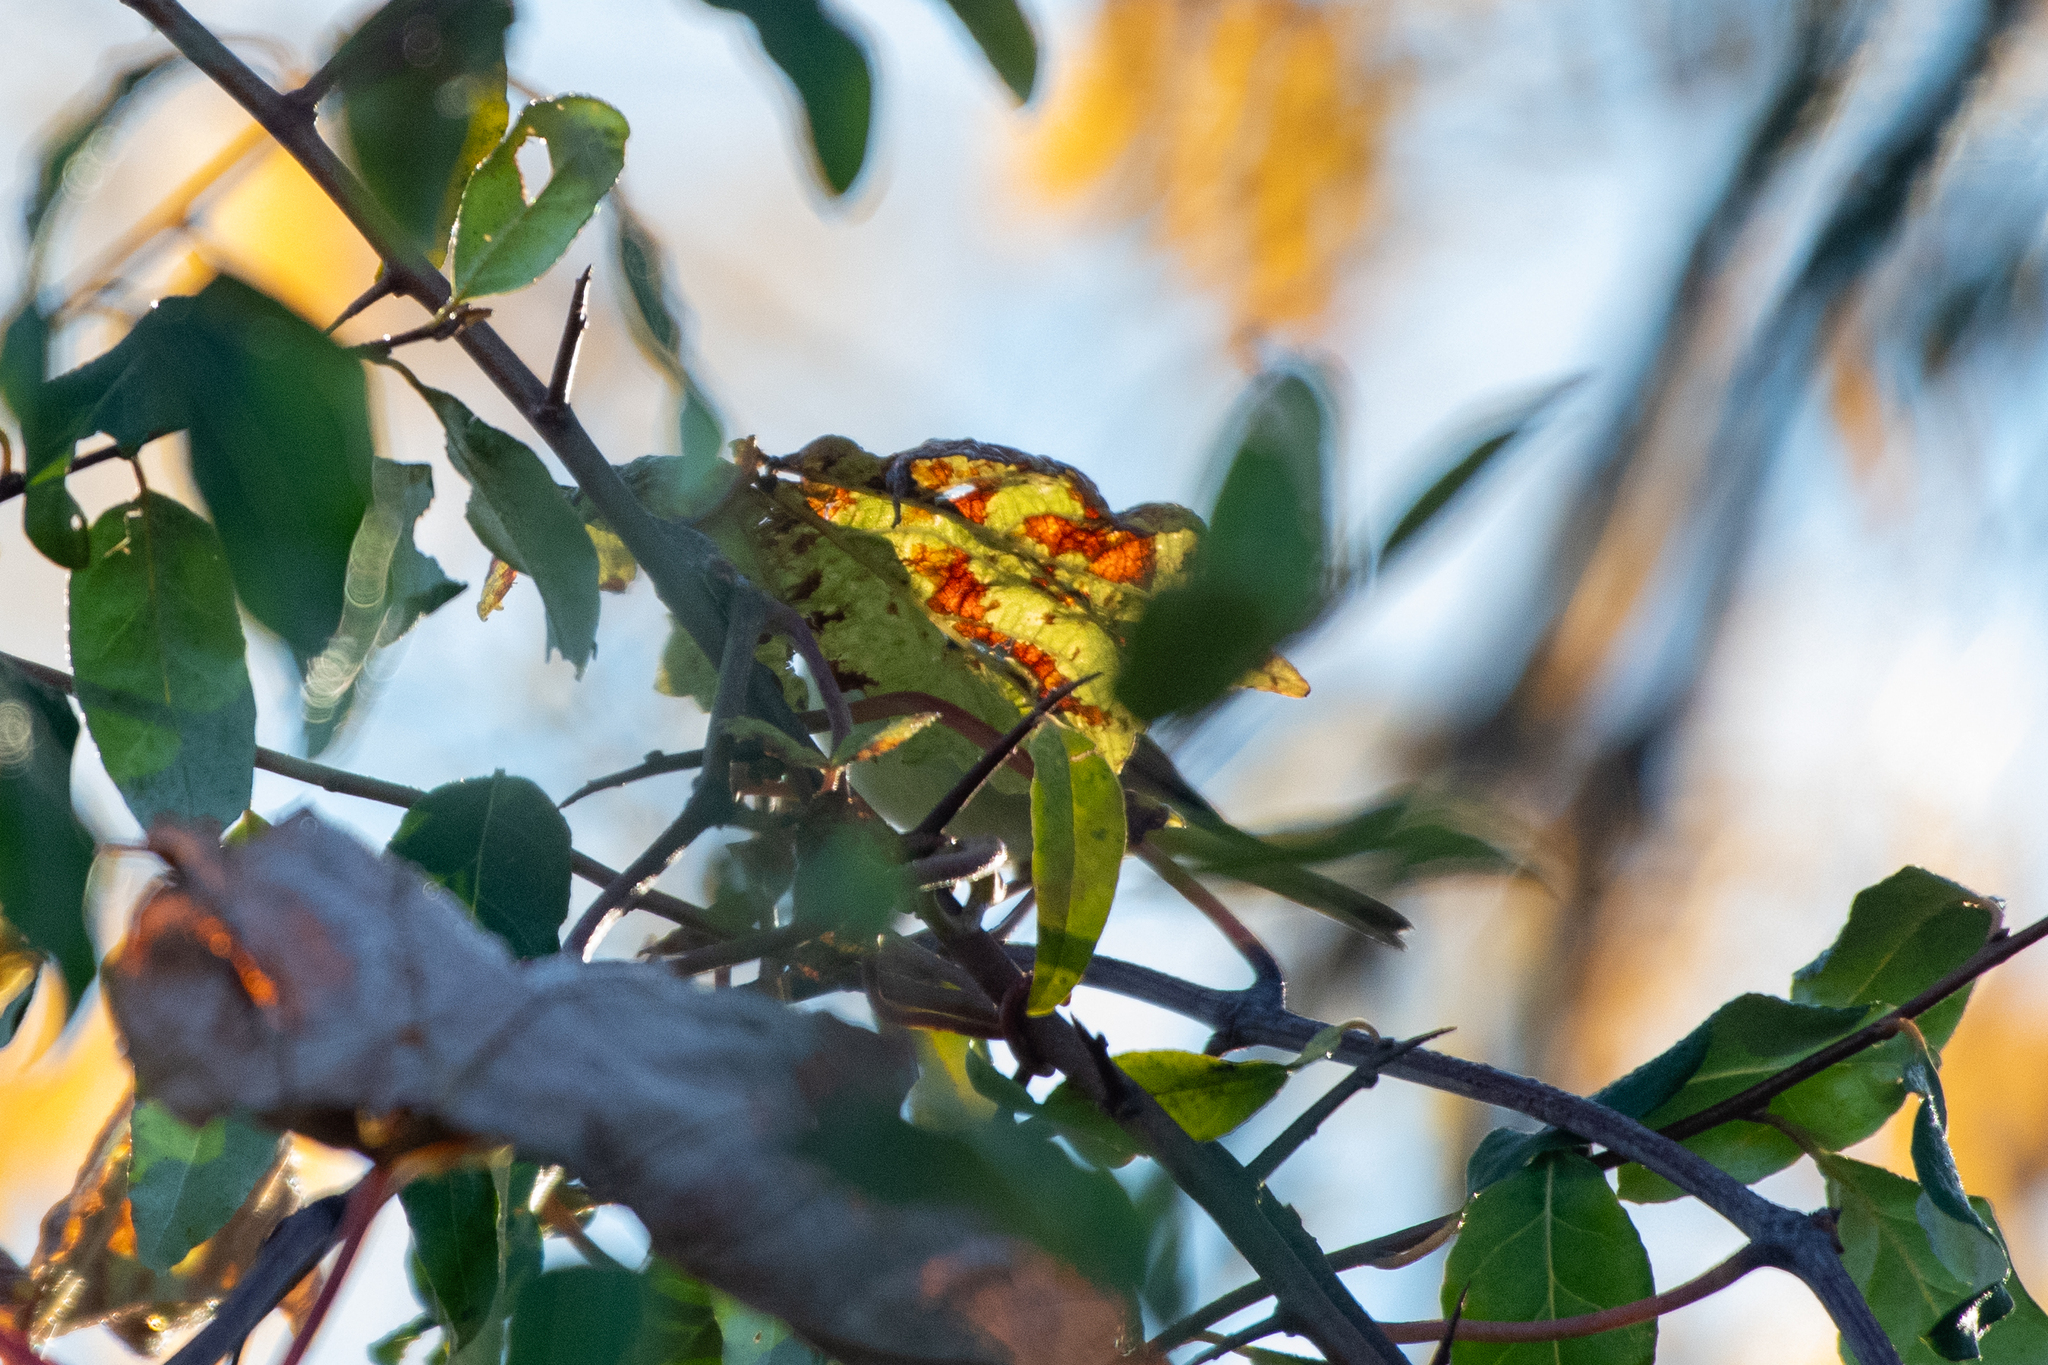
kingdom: Animalia
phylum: Chordata
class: Aves
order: Passeriformes
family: Parulidae
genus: Leiothlypis
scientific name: Leiothlypis celata
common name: Orange-crowned warbler
